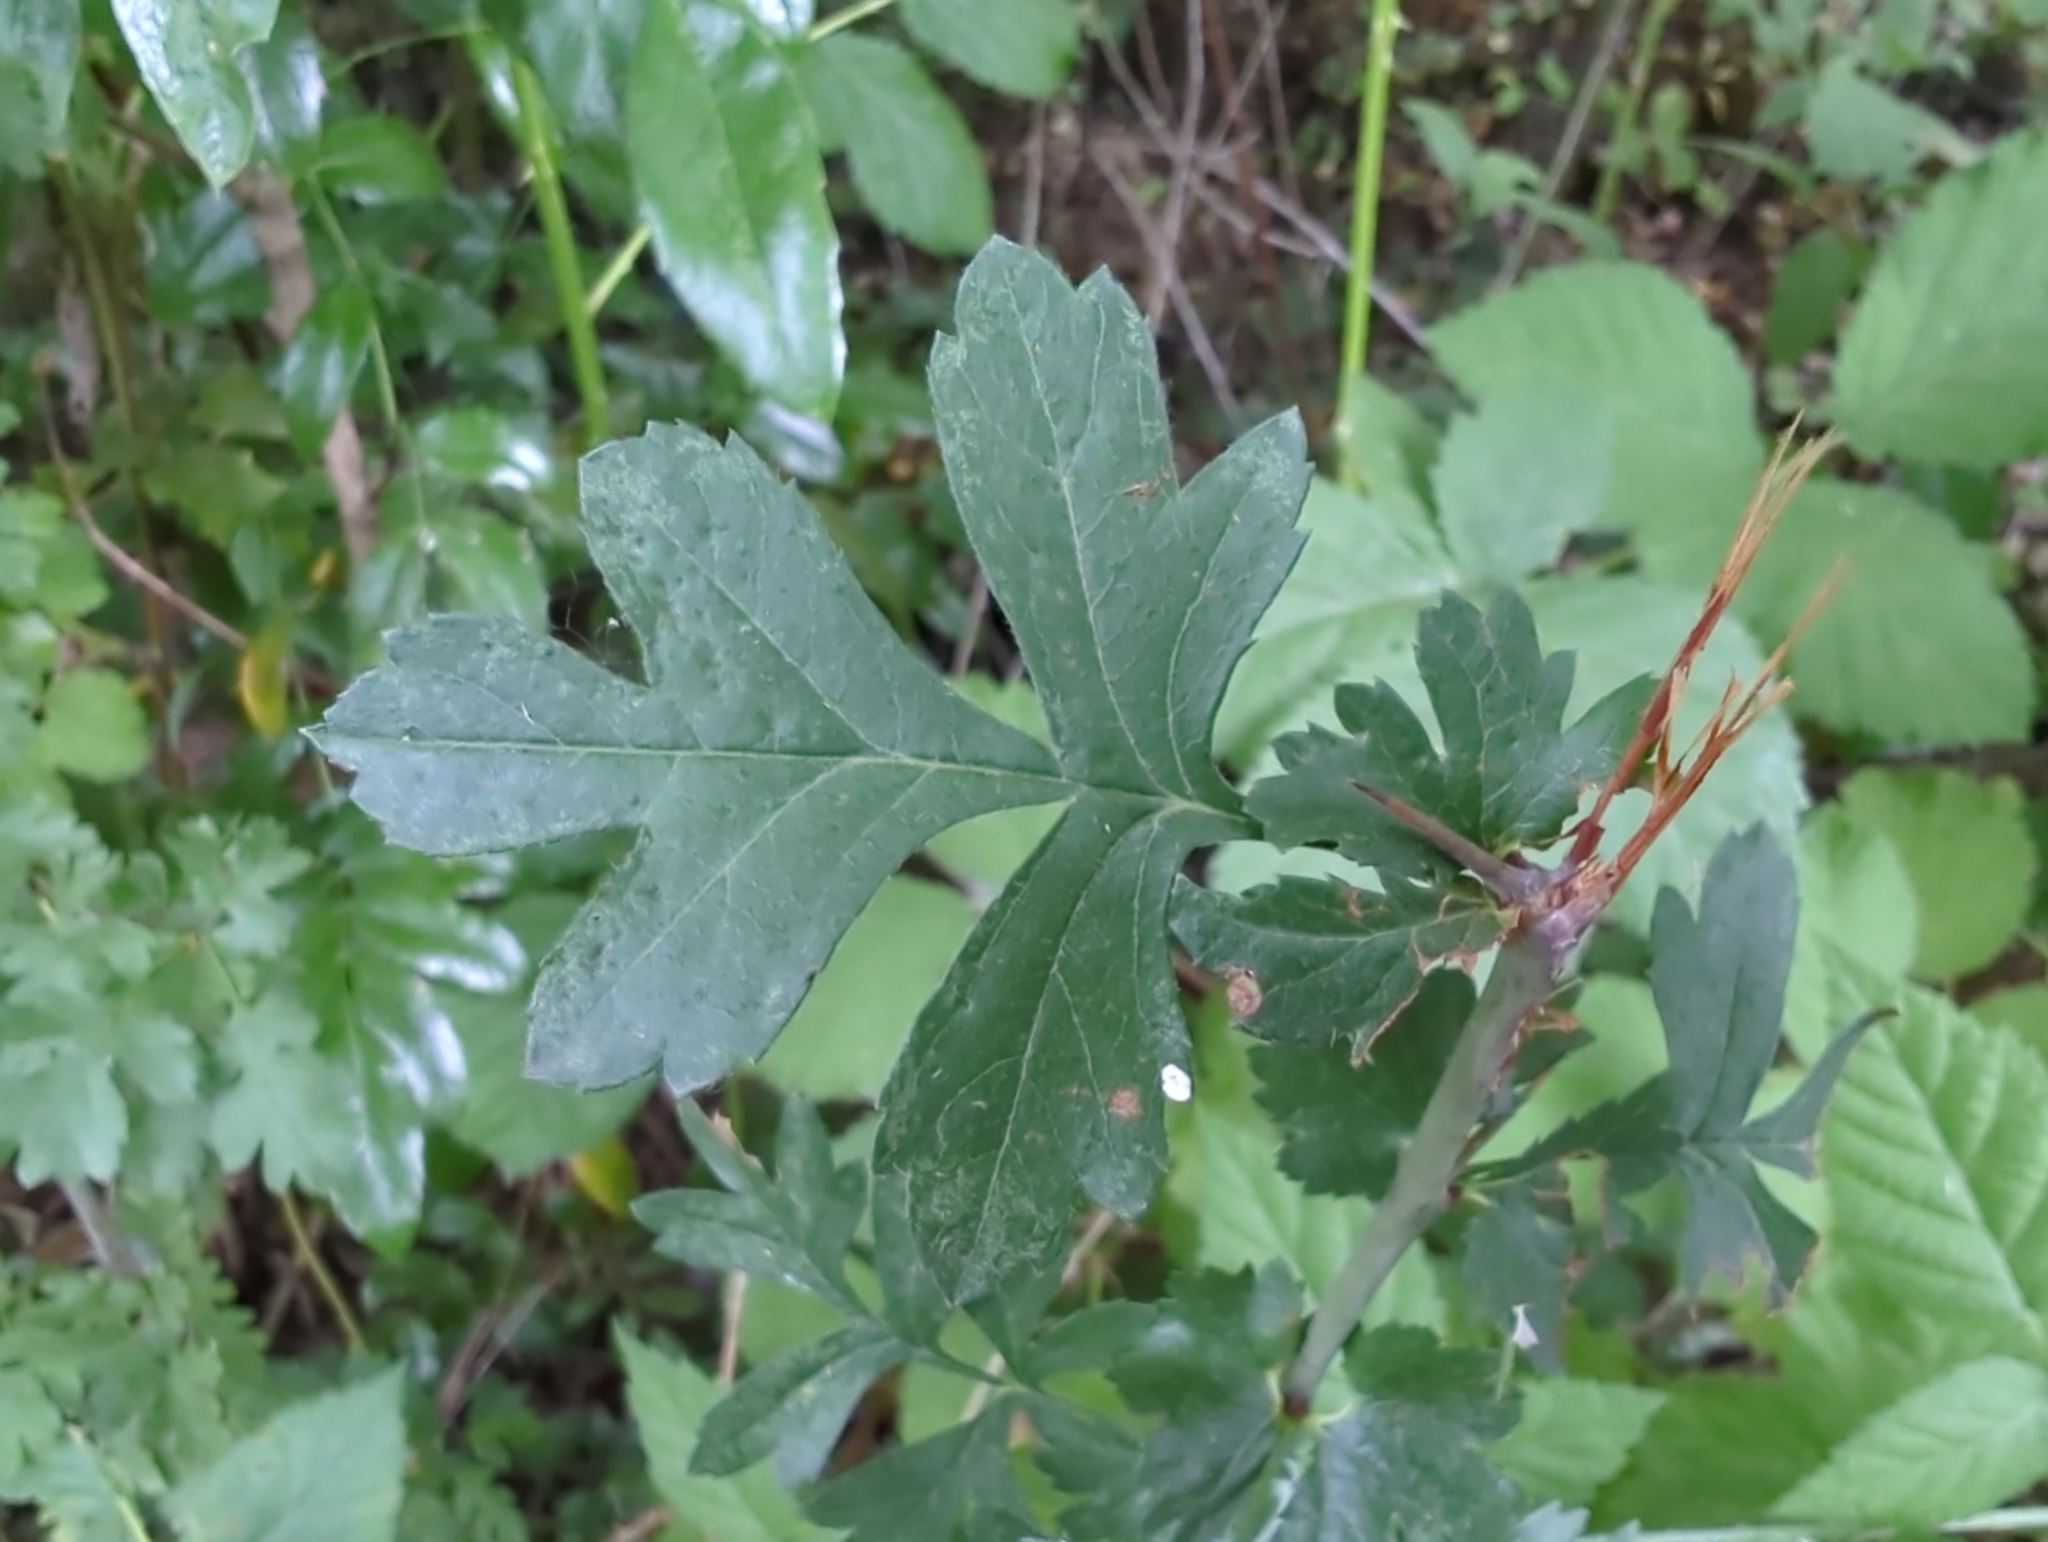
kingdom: Plantae
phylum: Tracheophyta
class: Magnoliopsida
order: Rosales
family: Rosaceae
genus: Crataegus
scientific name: Crataegus monogyna
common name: Hawthorn
